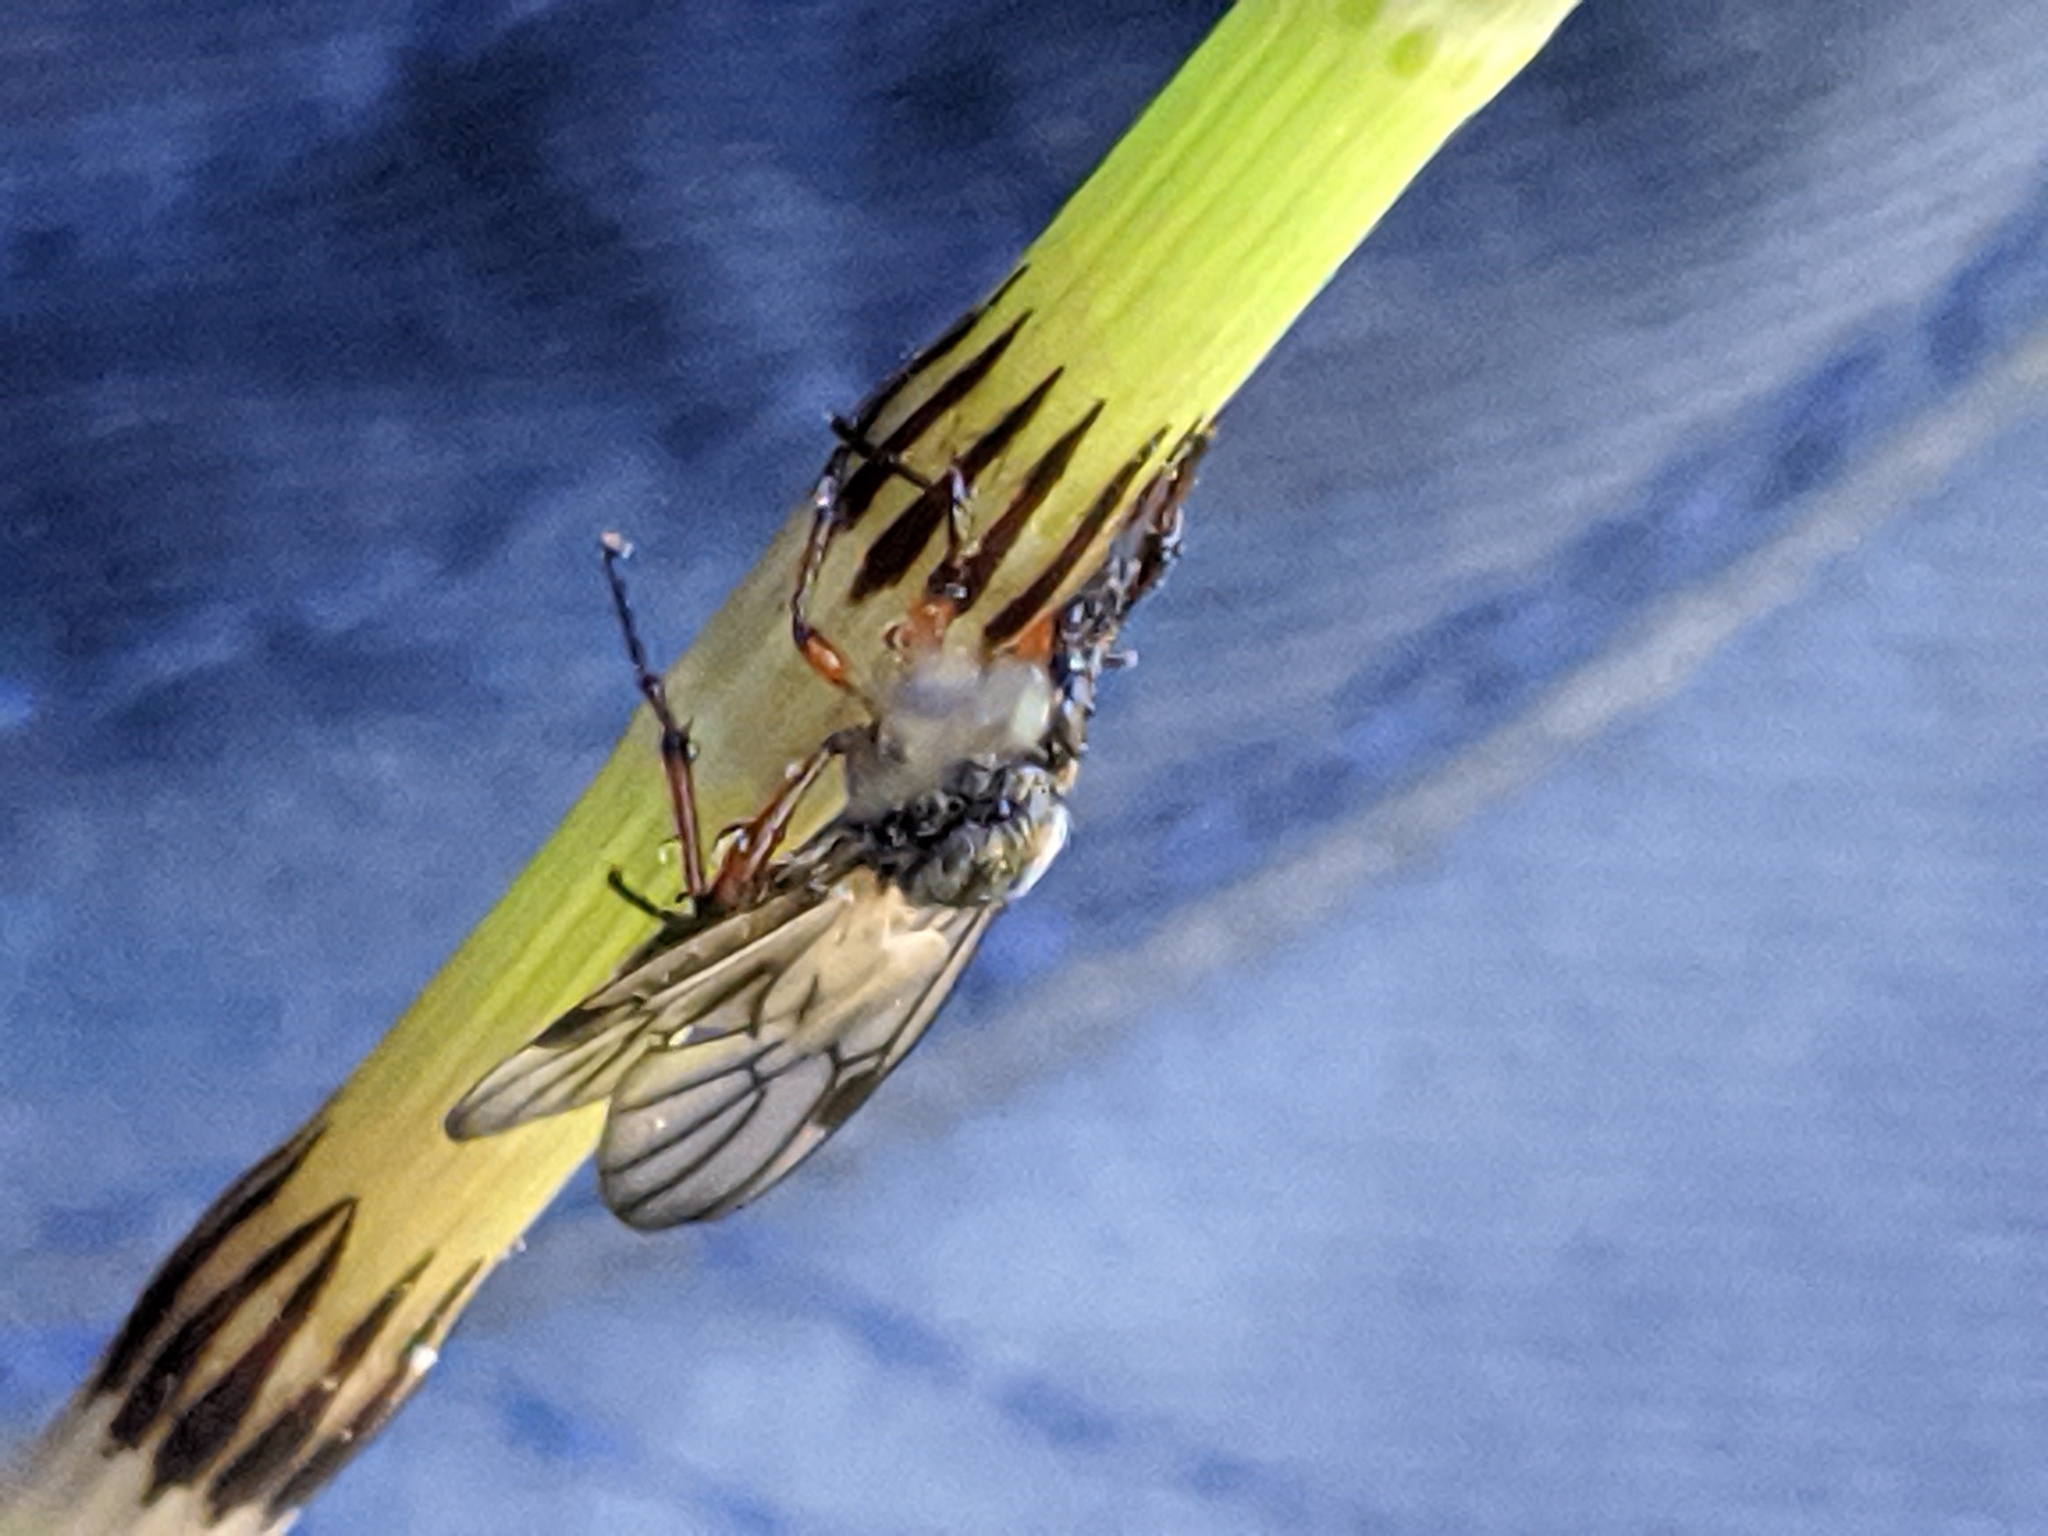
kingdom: Animalia
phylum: Arthropoda
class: Insecta
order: Diptera
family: Bibionidae
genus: Bibio
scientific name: Bibio
